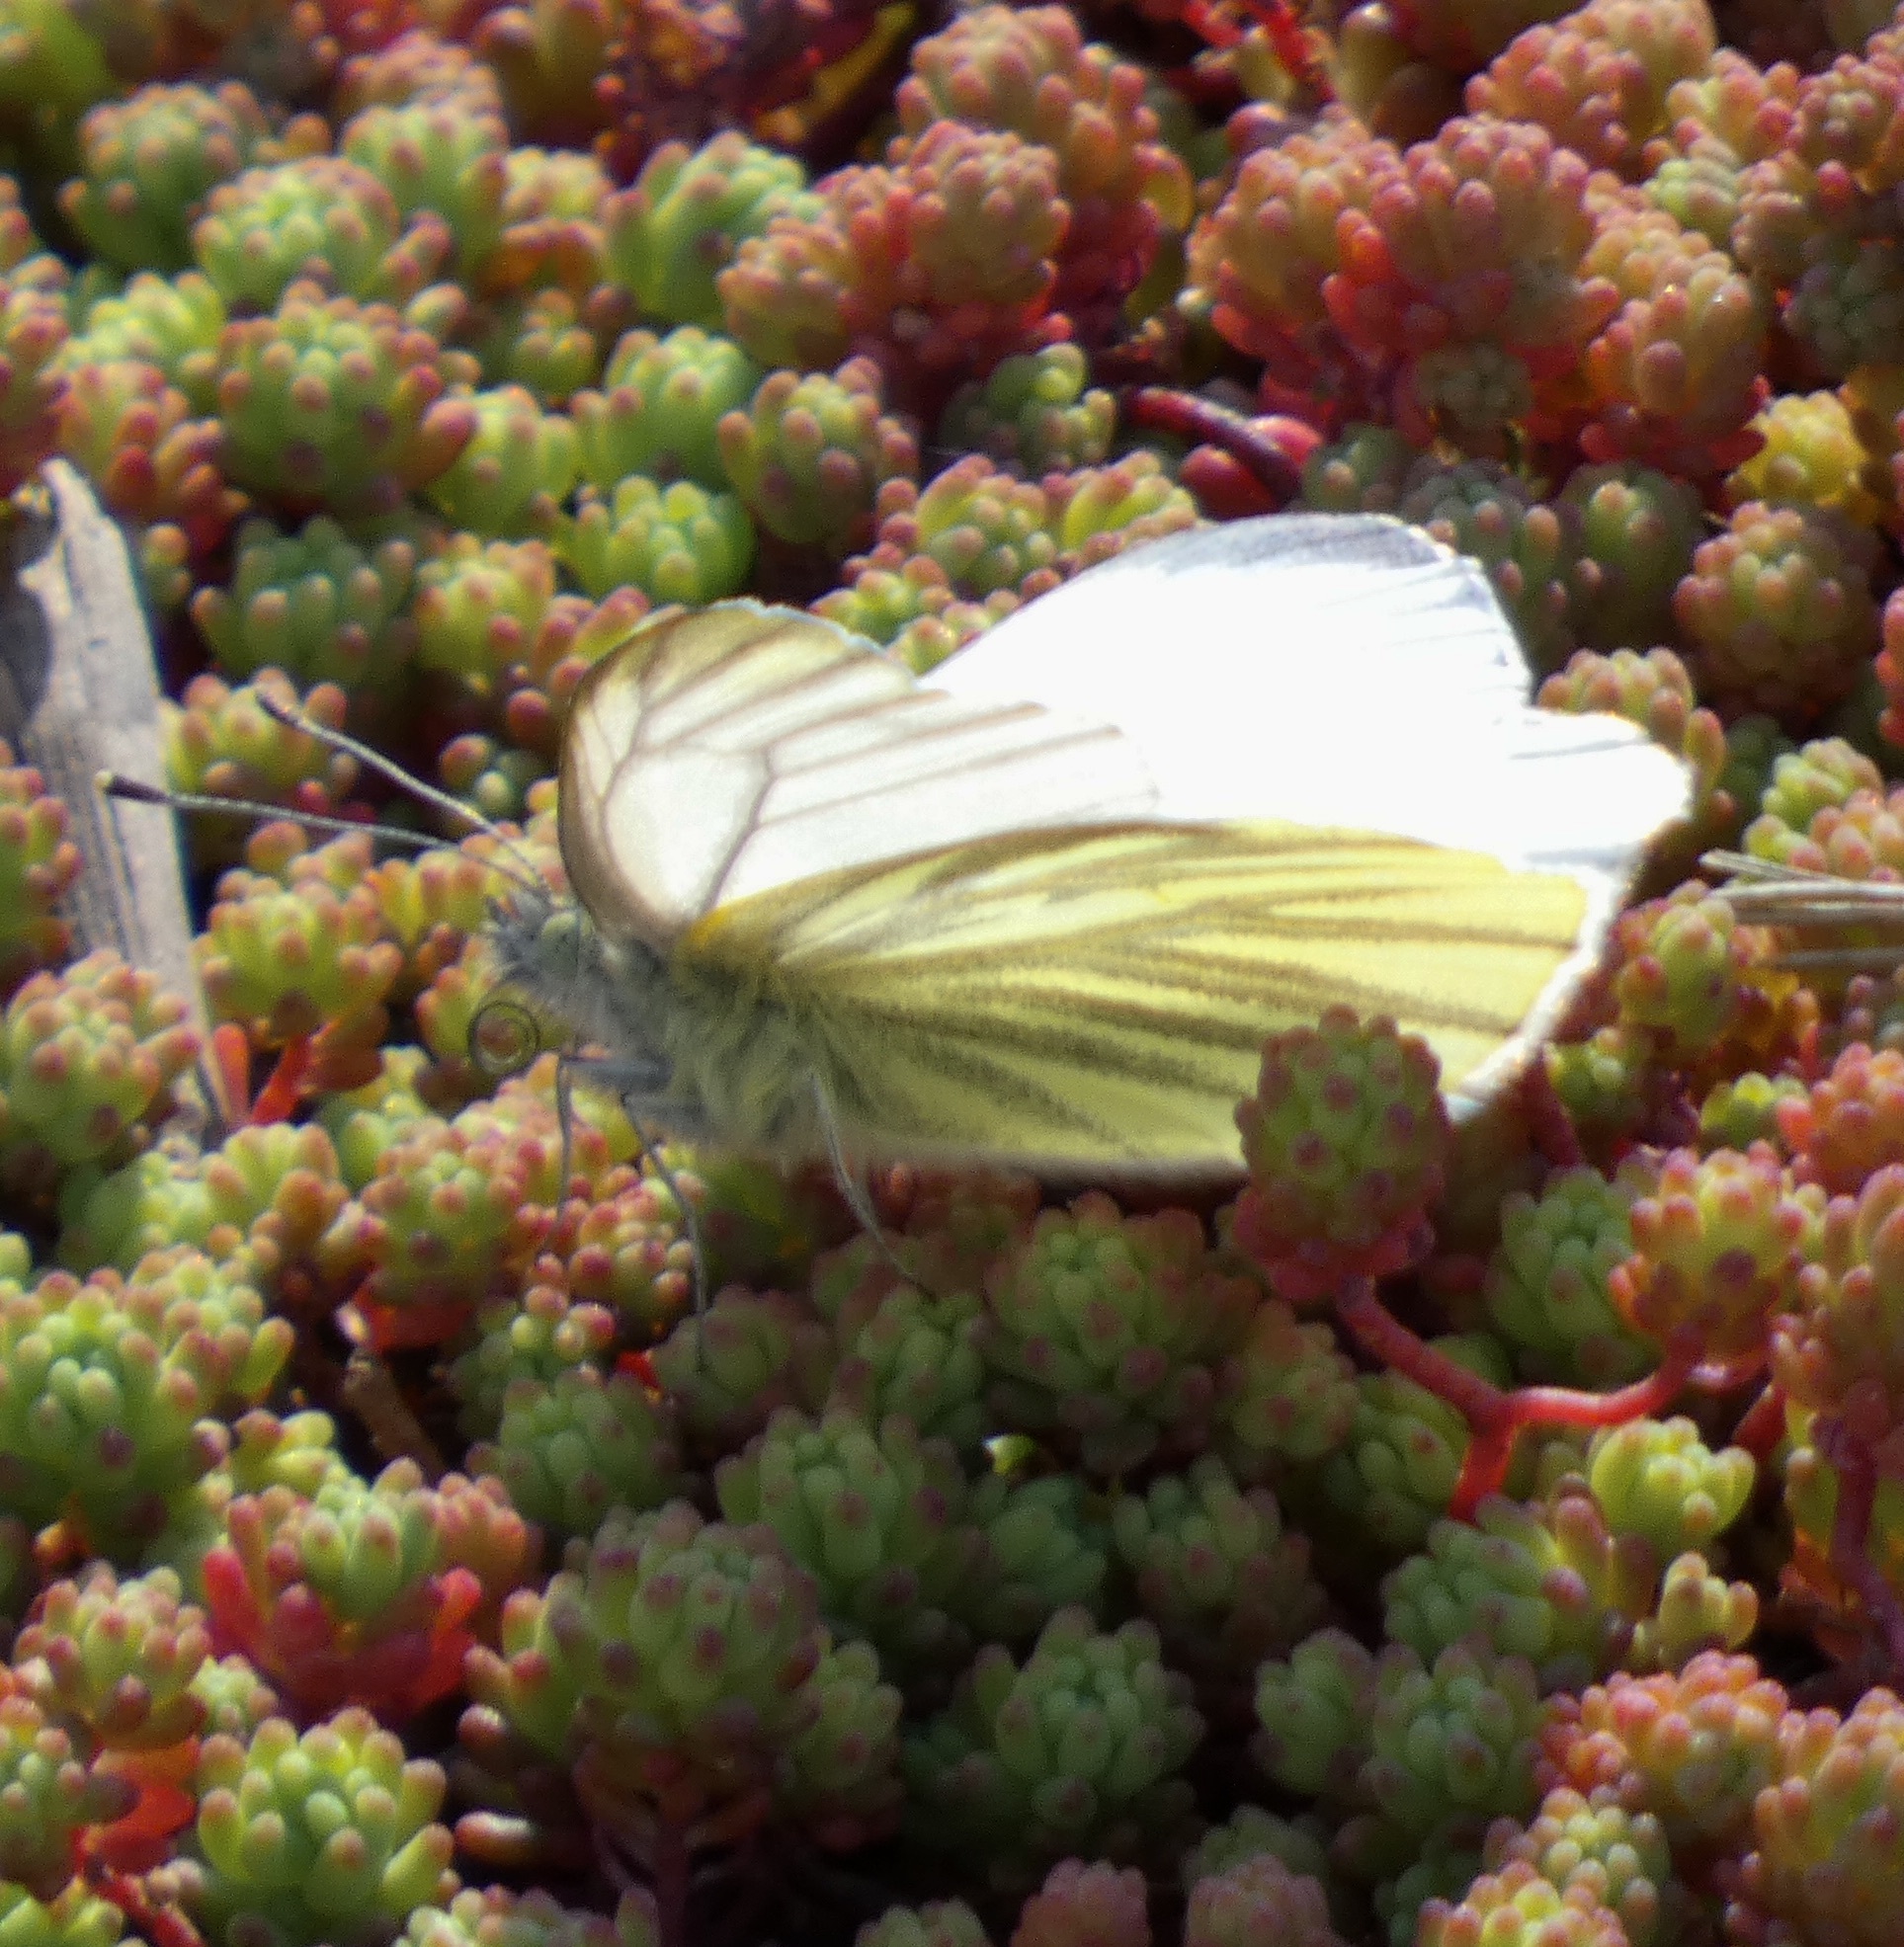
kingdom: Animalia
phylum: Arthropoda
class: Insecta
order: Lepidoptera
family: Pieridae
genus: Pieris
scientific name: Pieris napi
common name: Green-veined white
